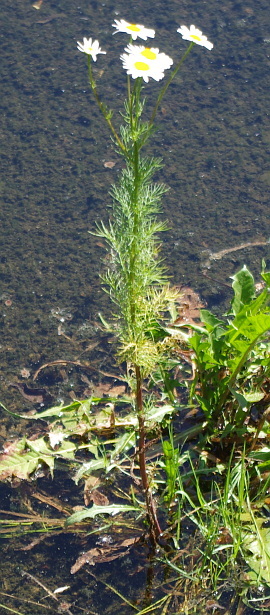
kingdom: Plantae
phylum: Tracheophyta
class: Magnoliopsida
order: Asterales
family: Asteraceae
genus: Tripleurospermum
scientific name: Tripleurospermum inodorum
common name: Scentless mayweed
